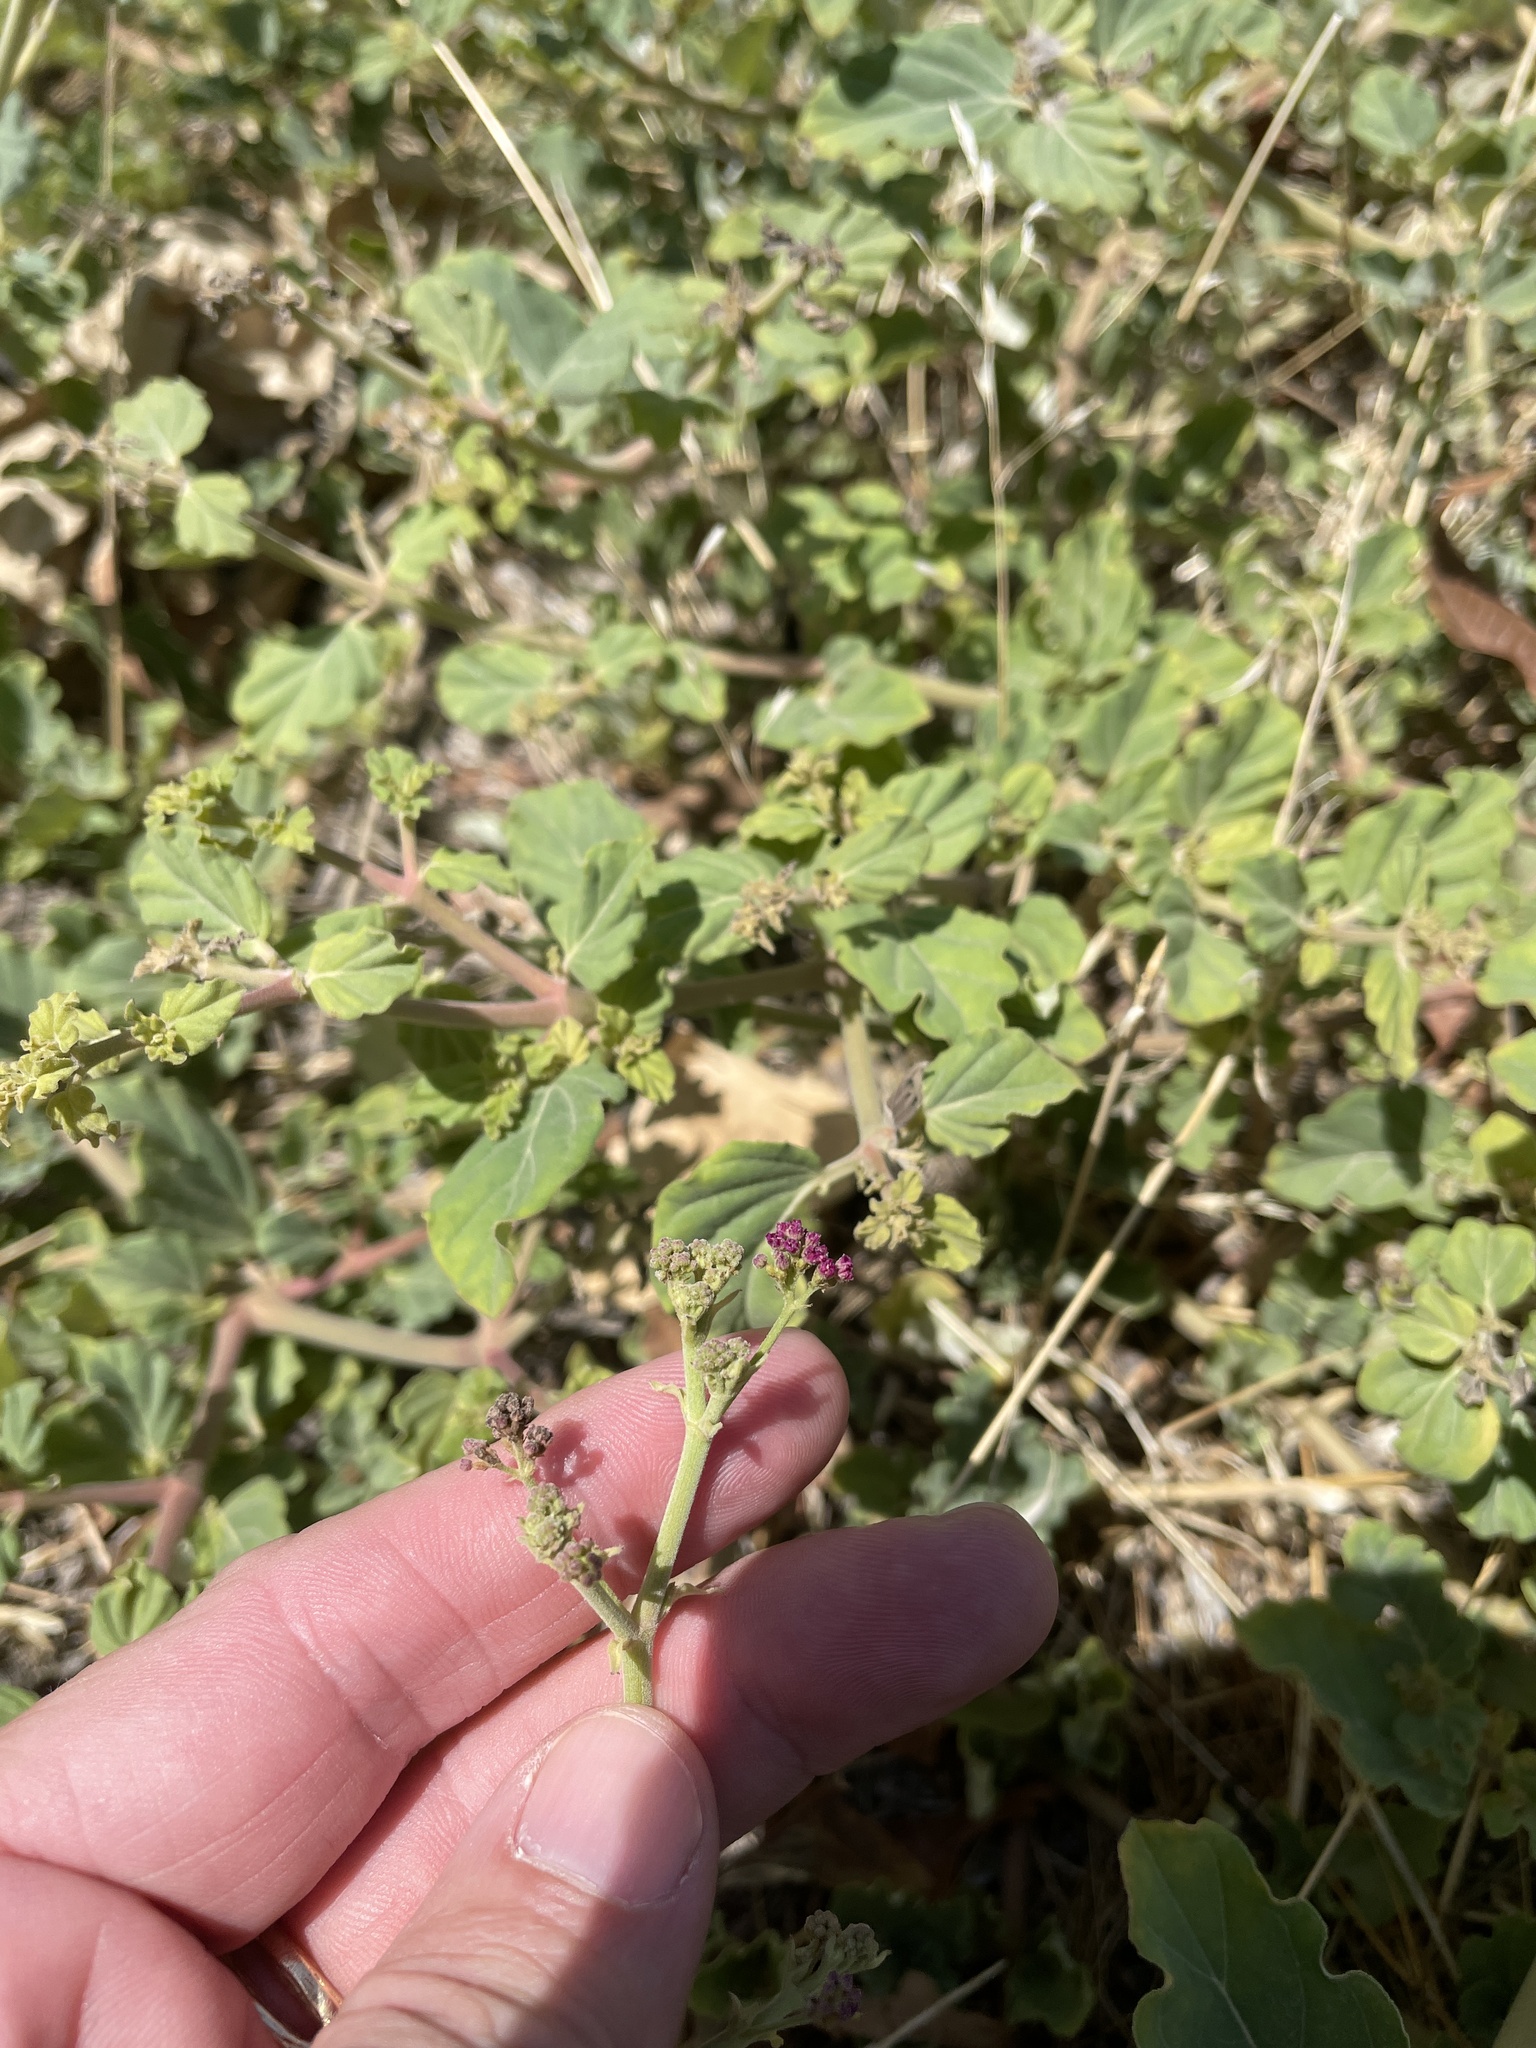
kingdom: Plantae
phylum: Tracheophyta
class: Magnoliopsida
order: Caryophyllales
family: Nyctaginaceae
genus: Boerhavia
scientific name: Boerhavia coccinea
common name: Scarlet spiderling
